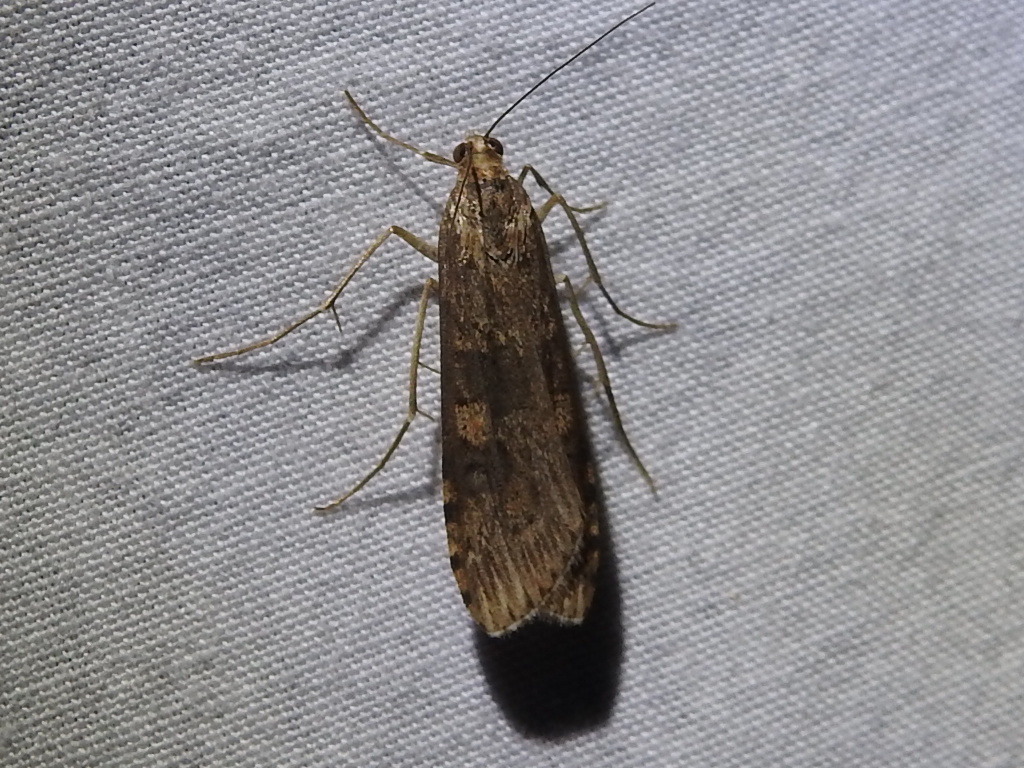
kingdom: Animalia
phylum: Arthropoda
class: Insecta
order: Lepidoptera
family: Crambidae
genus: Nomophila
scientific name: Nomophila nearctica
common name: American rush veneer
